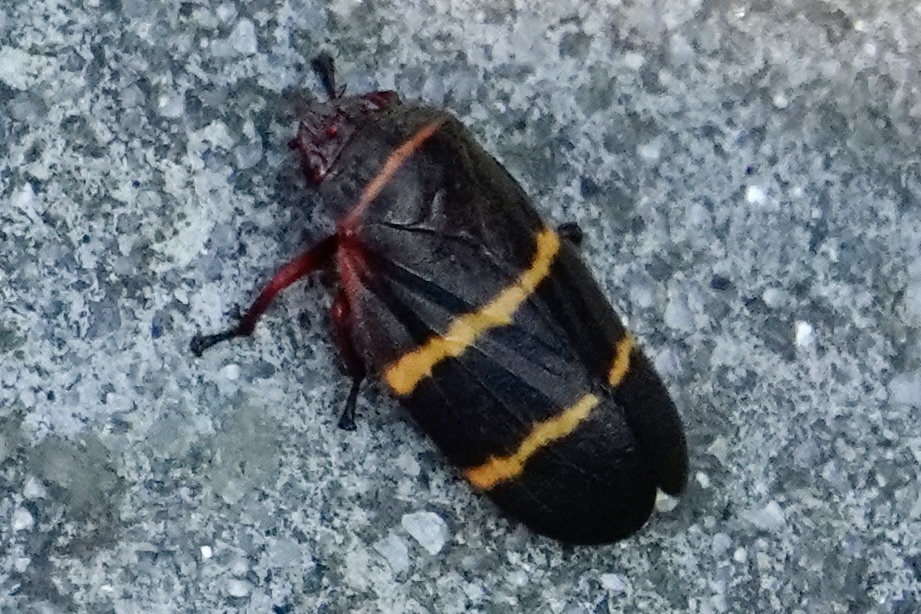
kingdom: Animalia
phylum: Arthropoda
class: Insecta
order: Hemiptera
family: Cercopidae
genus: Prosapia
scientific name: Prosapia bicincta
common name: Twolined spittlebug
